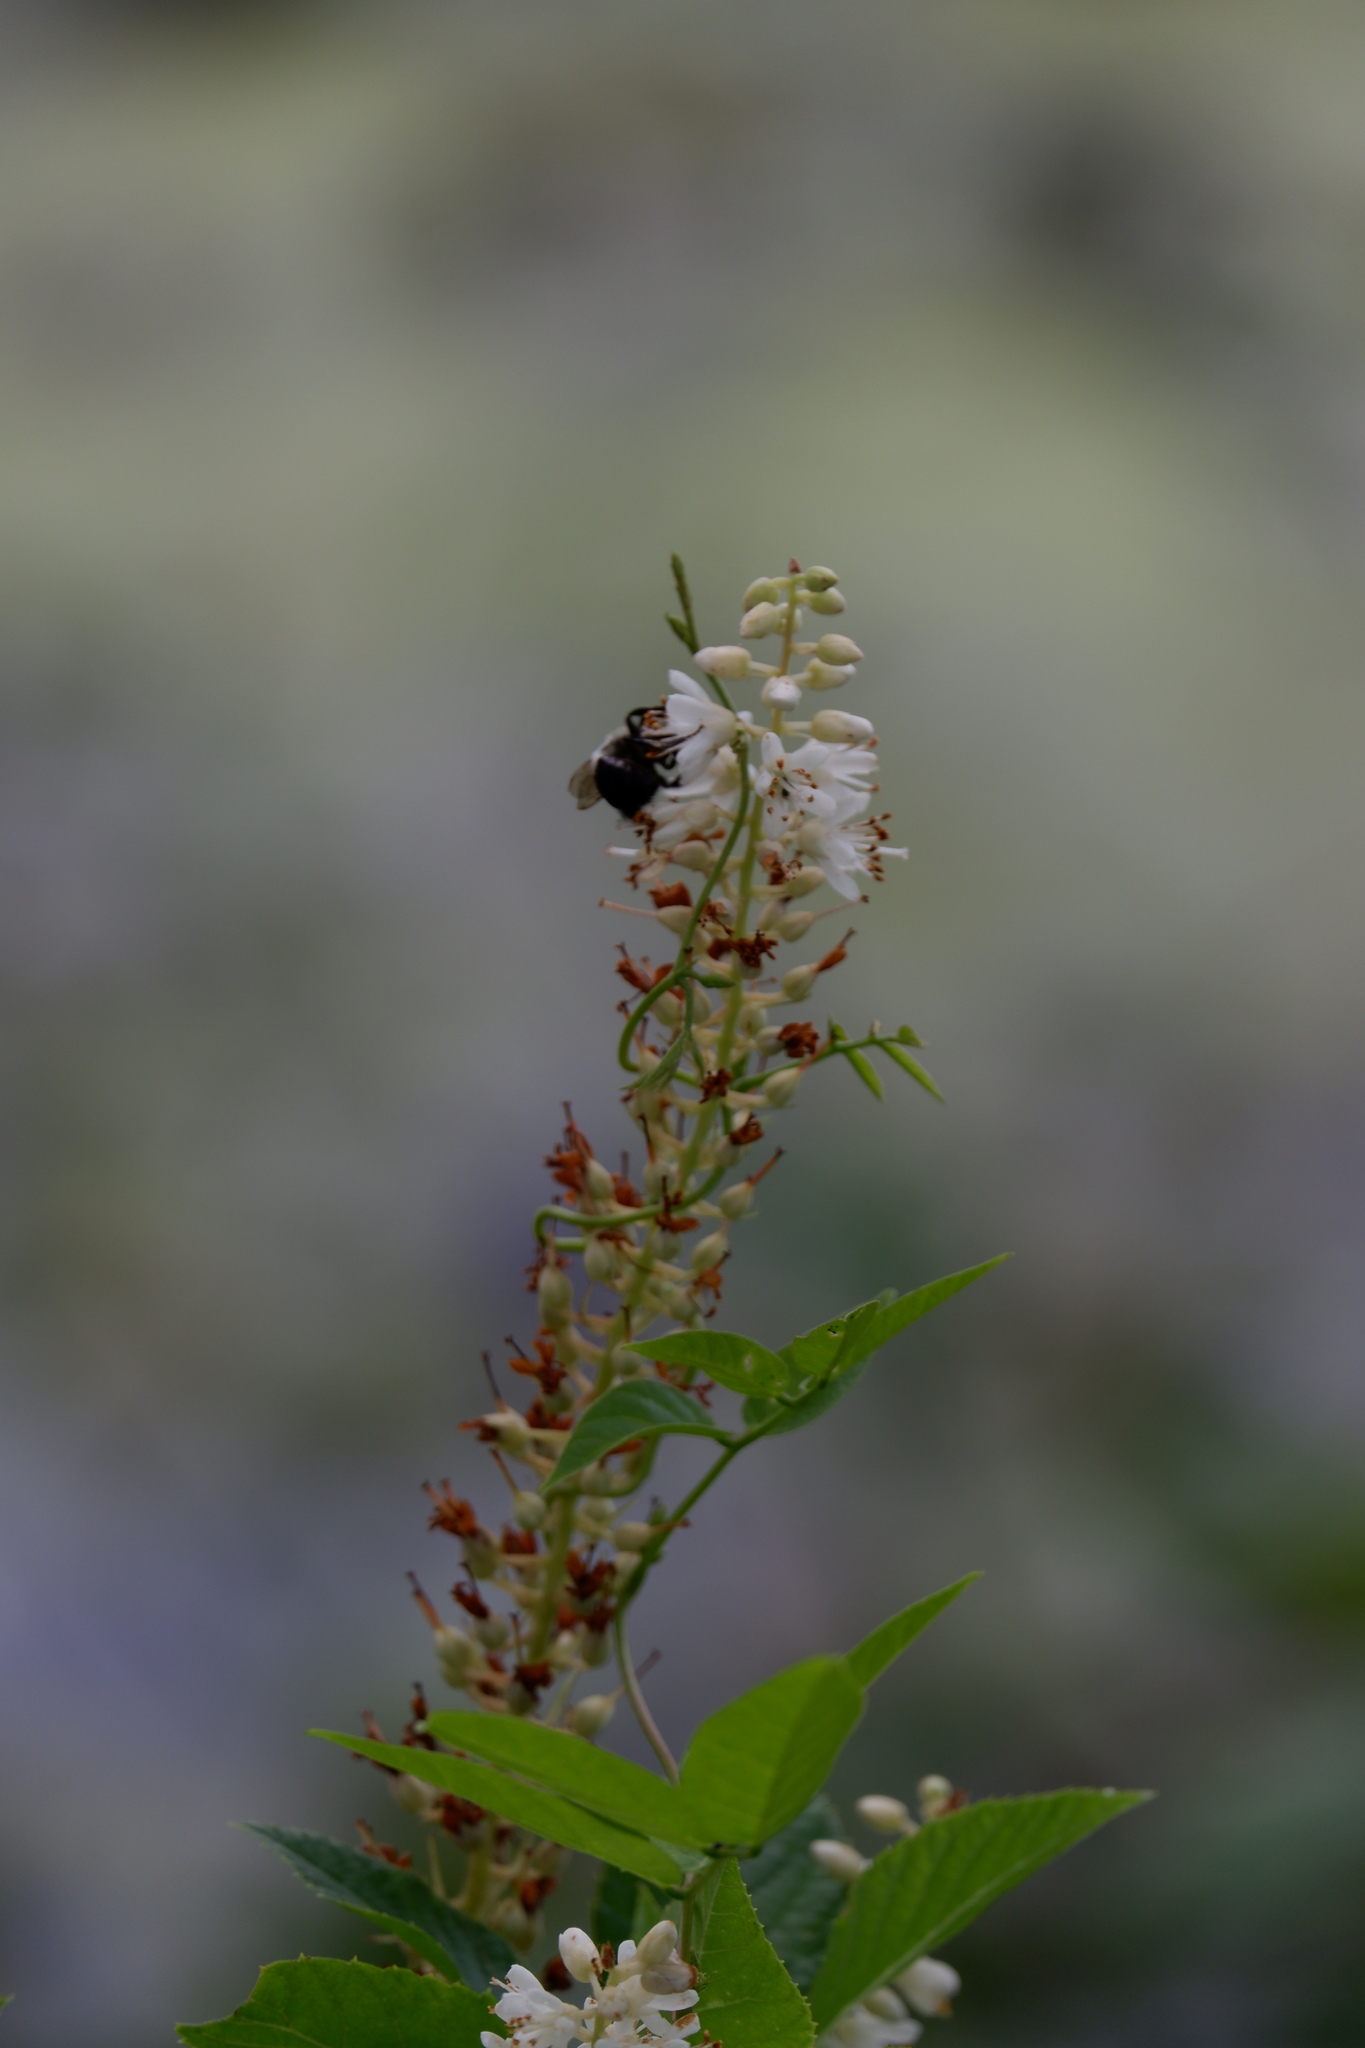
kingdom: Animalia
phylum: Arthropoda
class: Insecta
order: Hymenoptera
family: Apidae
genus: Bombus
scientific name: Bombus impatiens
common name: Common eastern bumble bee
